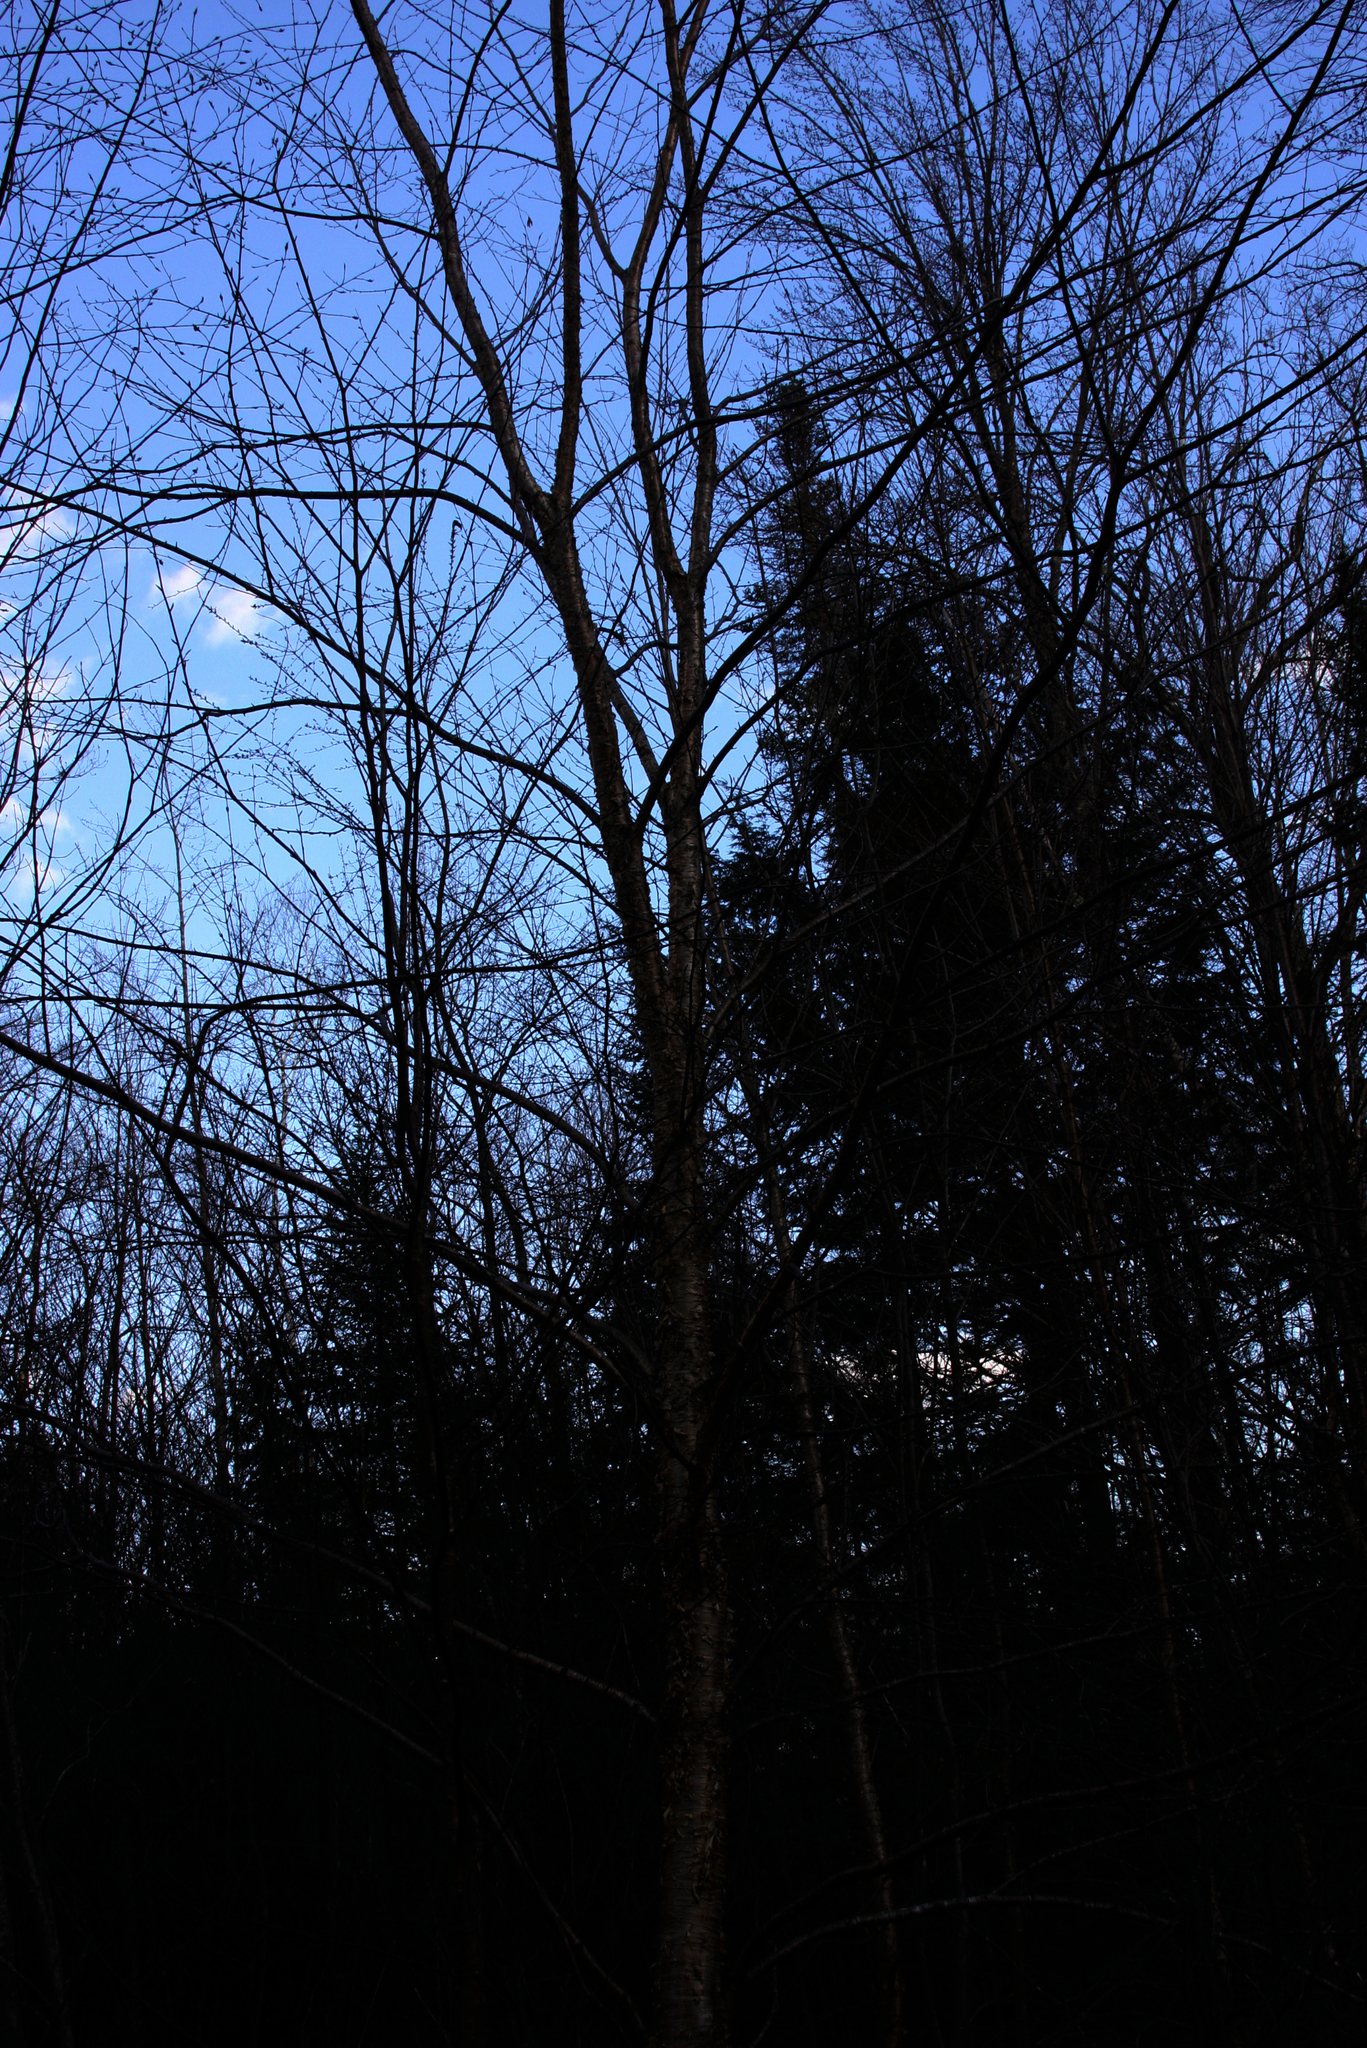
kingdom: Plantae
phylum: Tracheophyta
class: Magnoliopsida
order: Fagales
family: Betulaceae
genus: Betula
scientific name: Betula alleghaniensis
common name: Yellow birch
